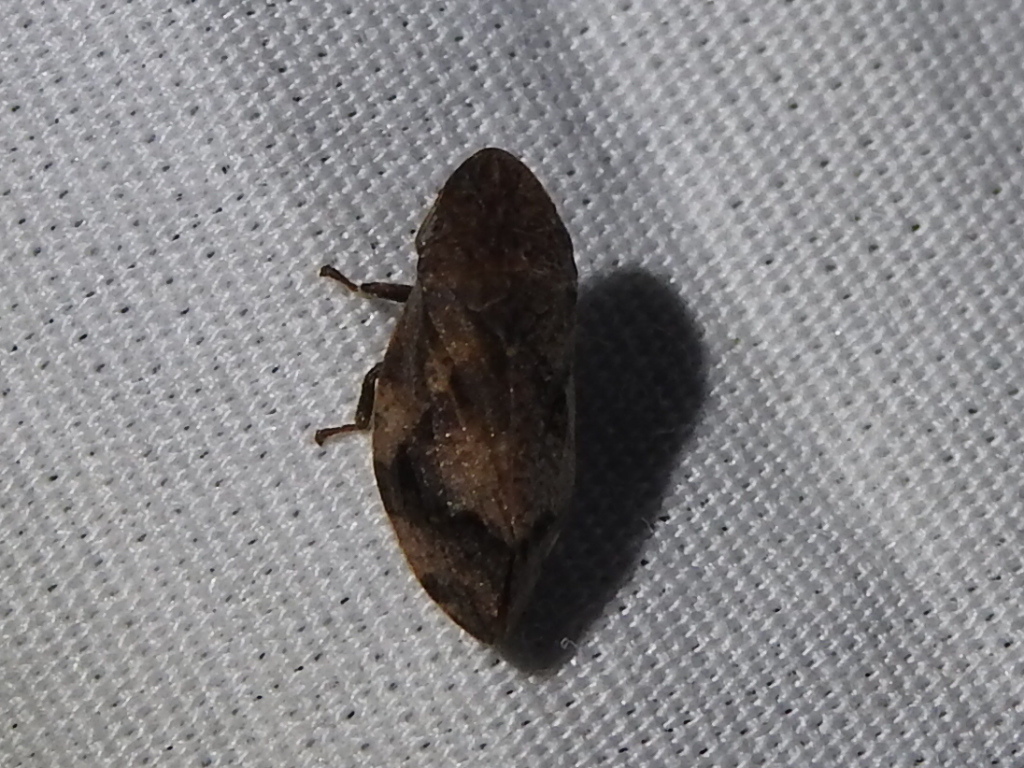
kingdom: Animalia
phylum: Arthropoda
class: Insecta
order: Hemiptera
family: Aphrophoridae
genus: Lepyronia
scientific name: Lepyronia quadrangularis
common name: Diamond-backed spittlebug
